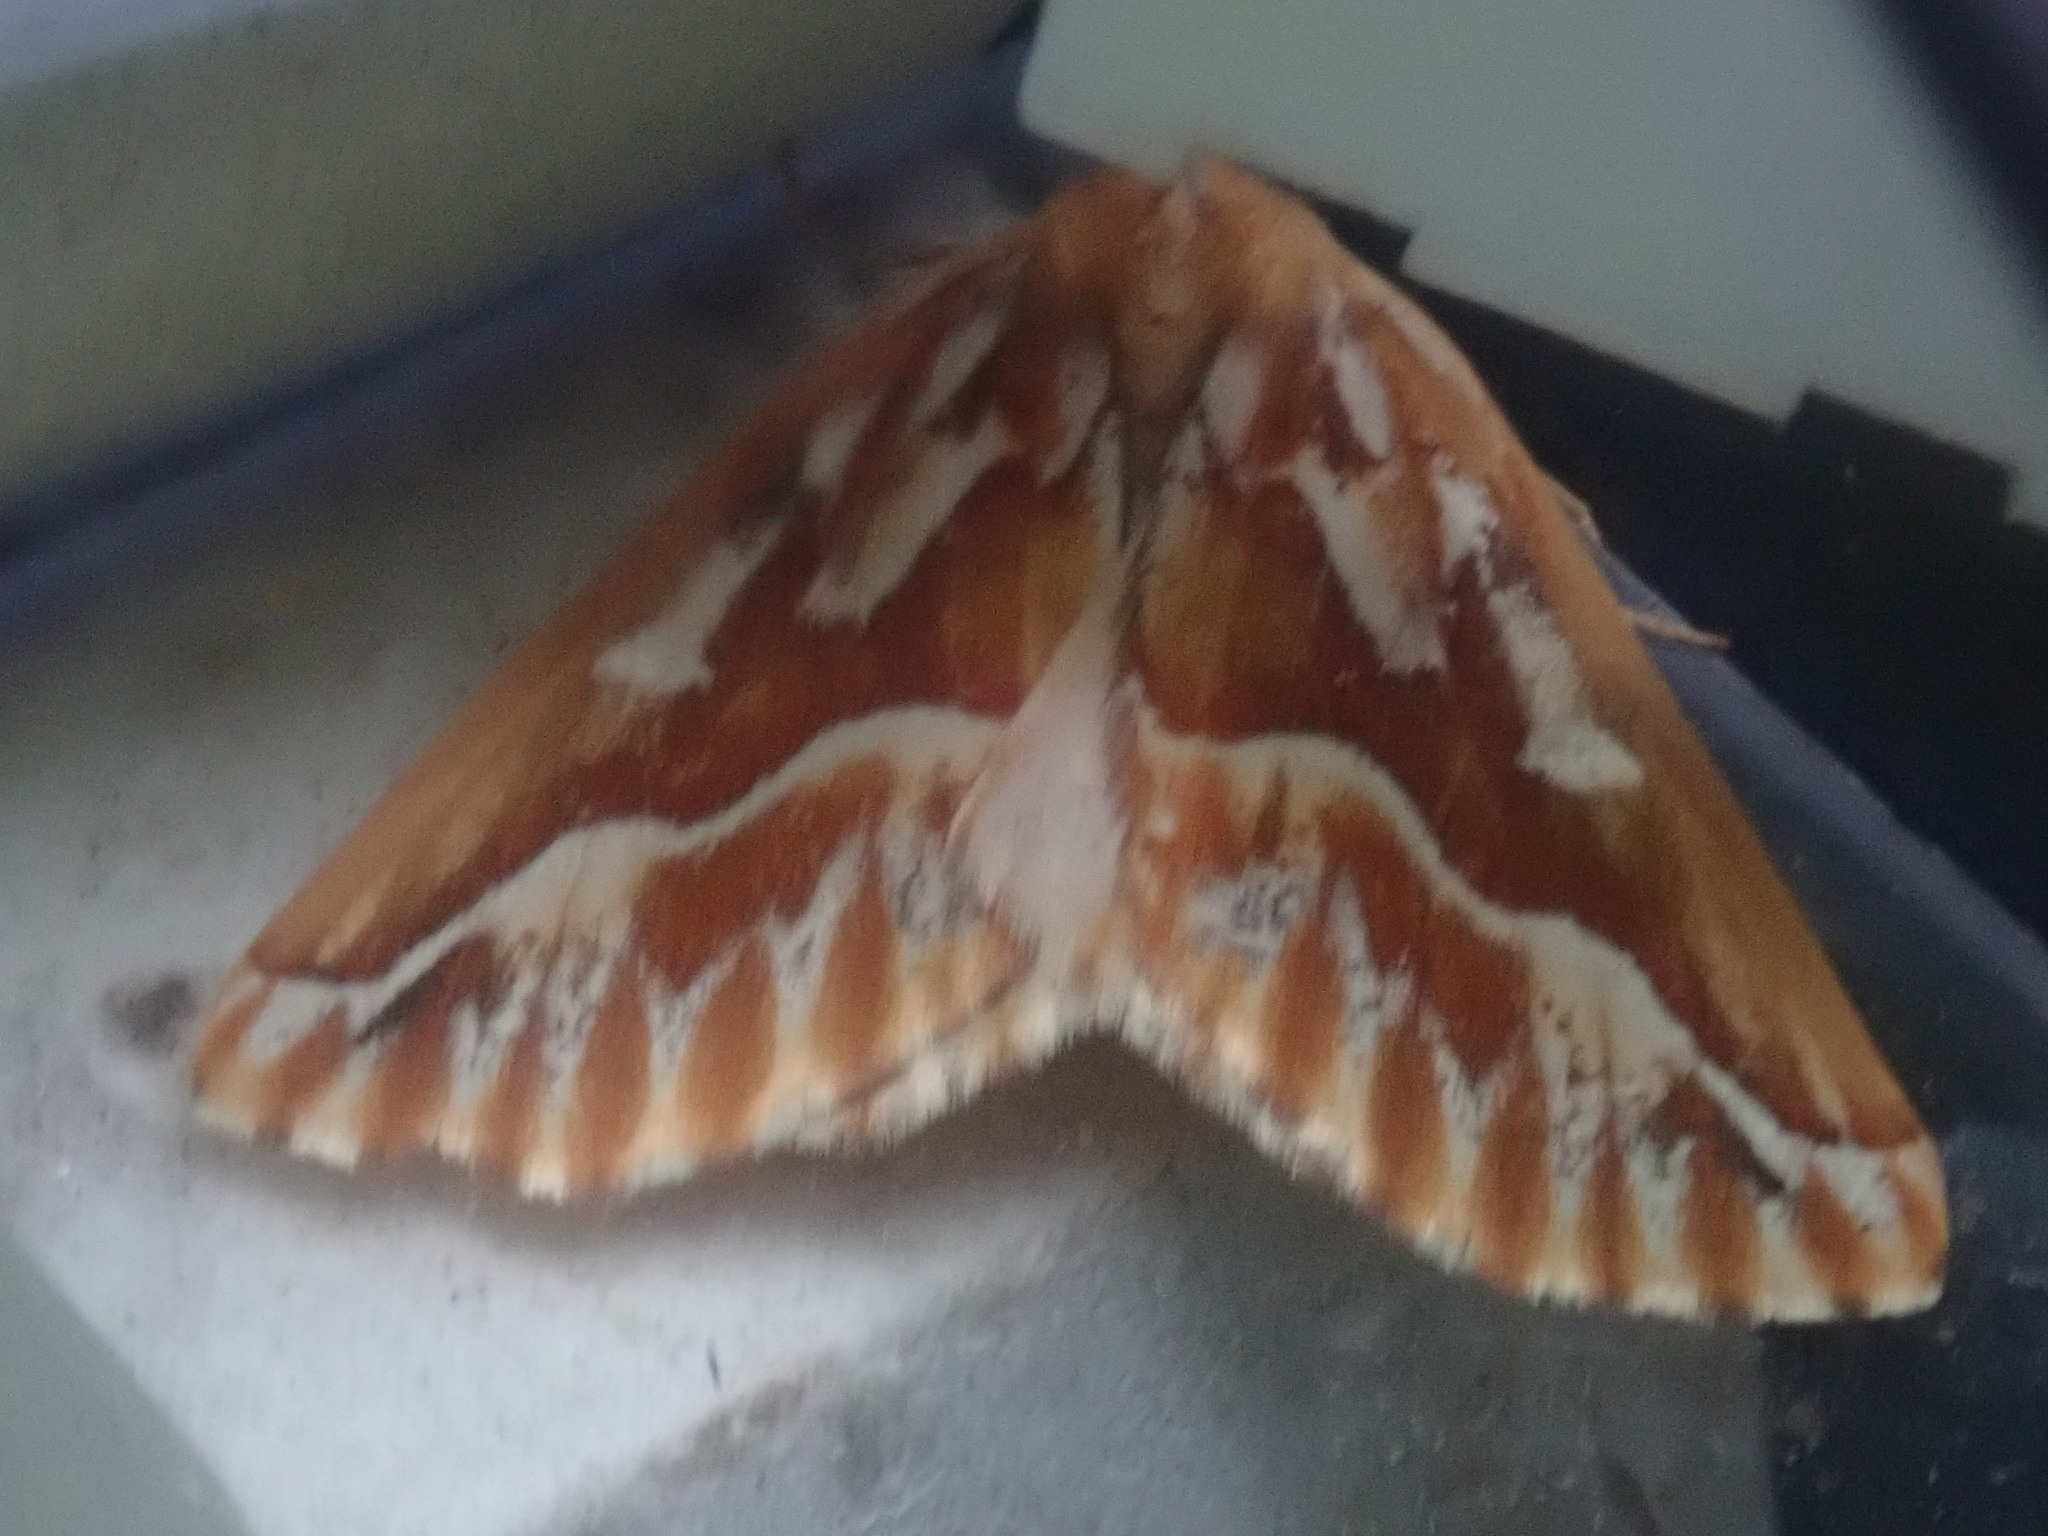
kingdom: Animalia
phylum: Arthropoda
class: Insecta
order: Lepidoptera
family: Geometridae
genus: Caripeta
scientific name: Caripeta piniata
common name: Northern pine looper moth
